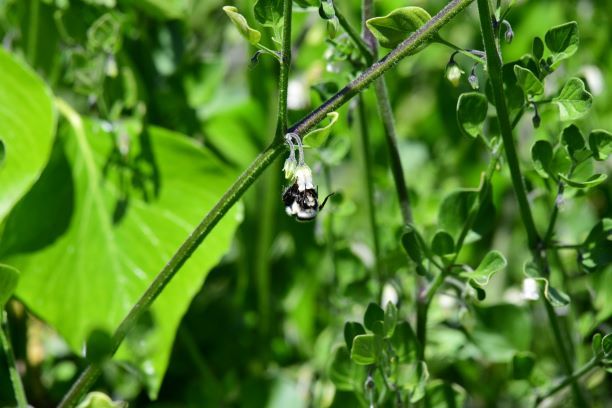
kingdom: Animalia
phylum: Arthropoda
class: Insecta
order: Hymenoptera
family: Apidae
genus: Bombus
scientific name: Bombus melanopygus
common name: Black tail bumble bee
